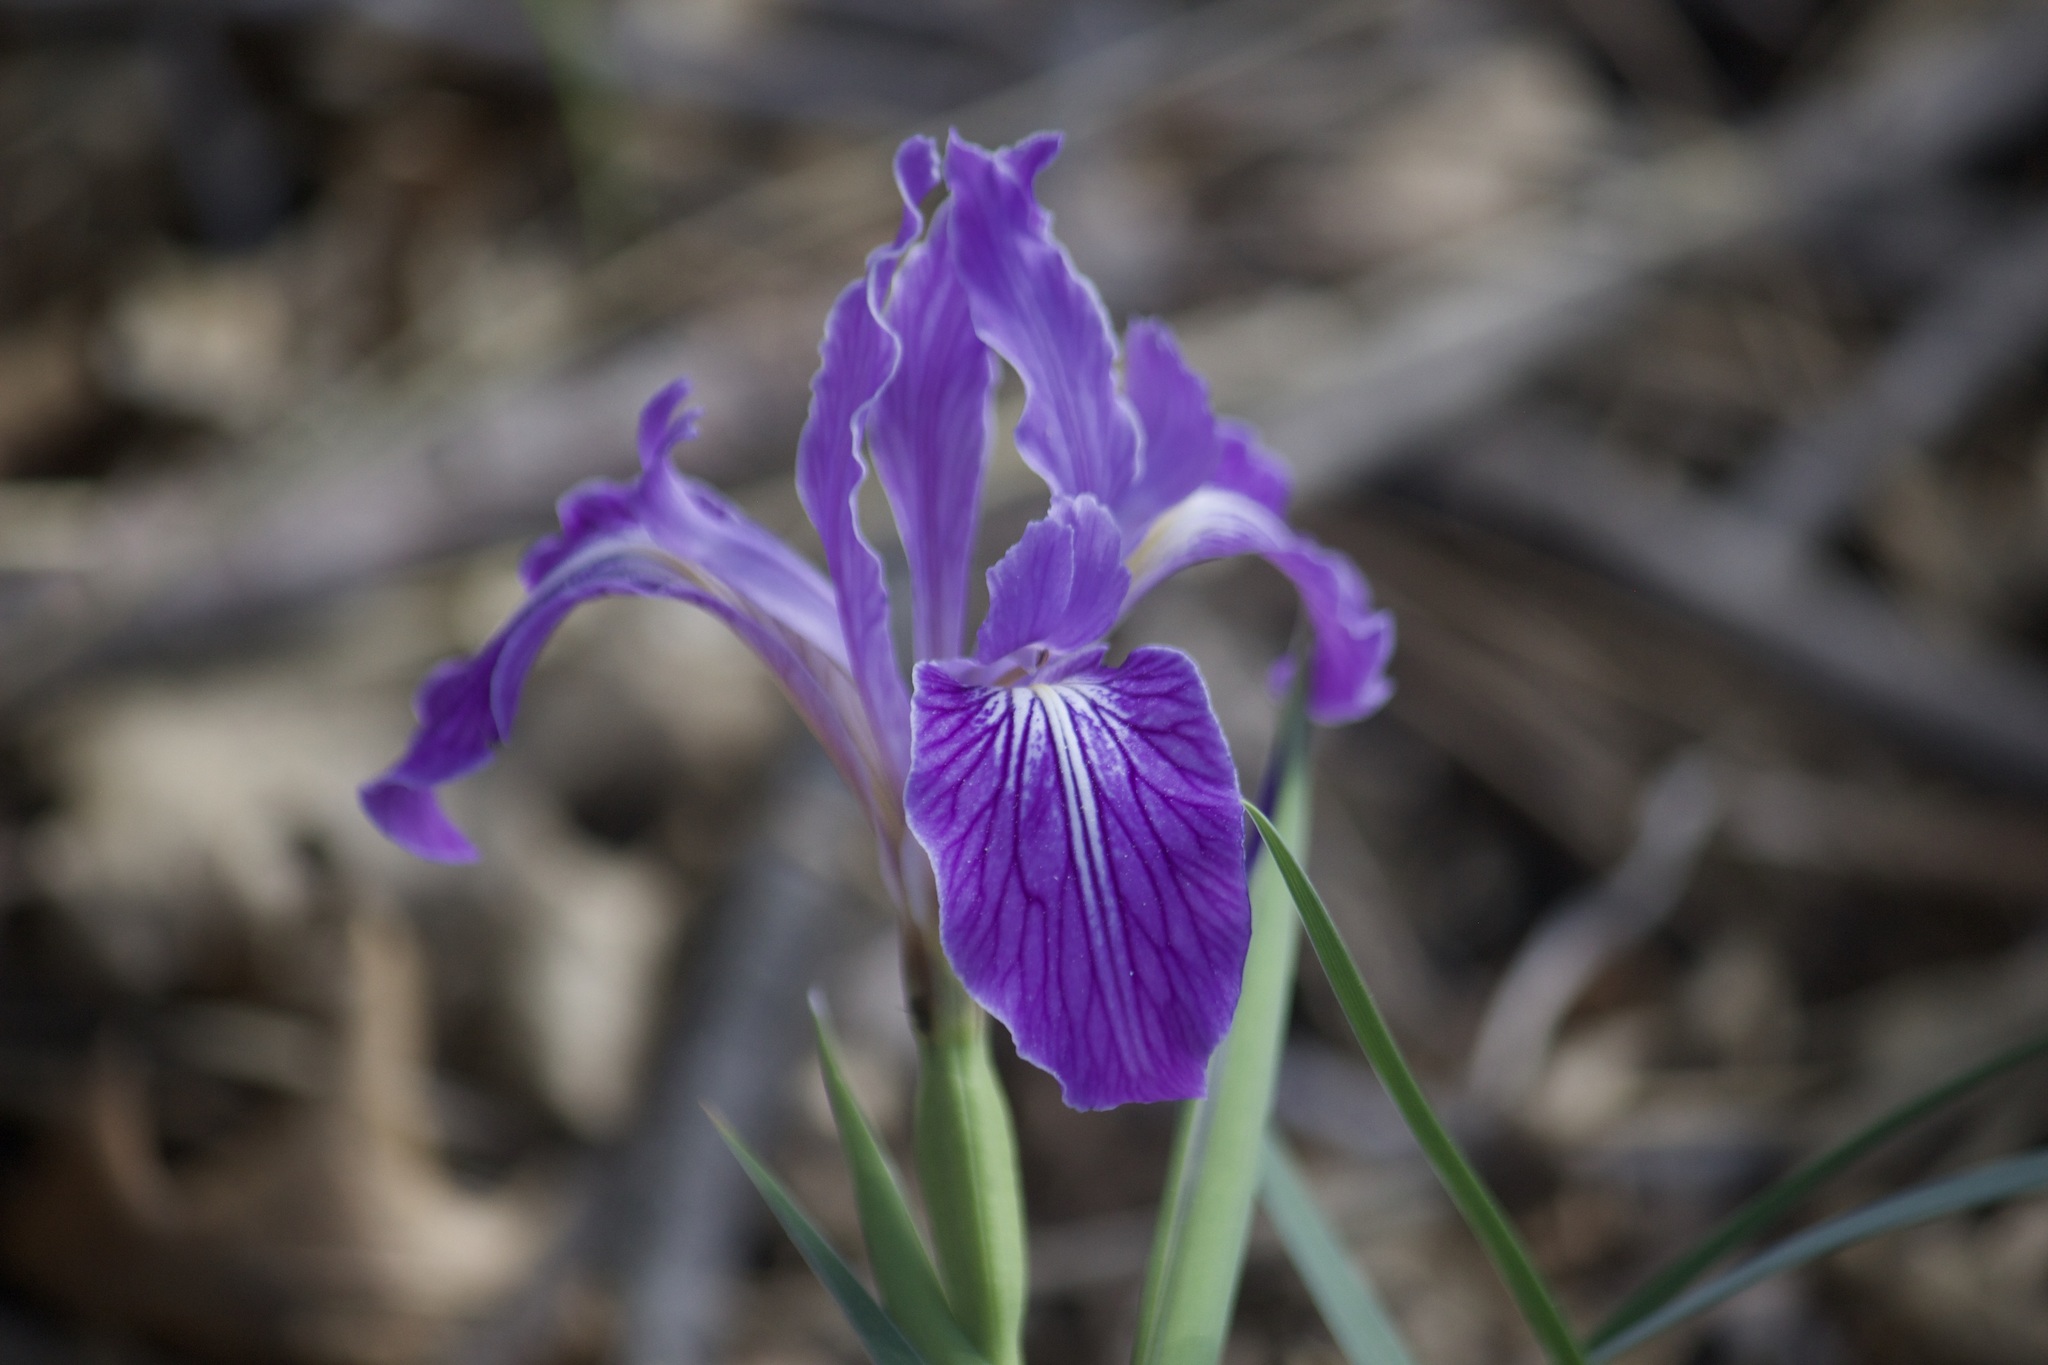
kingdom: Plantae
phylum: Tracheophyta
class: Liliopsida
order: Asparagales
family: Iridaceae
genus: Iris
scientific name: Iris hartwegii
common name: Sierra iris
